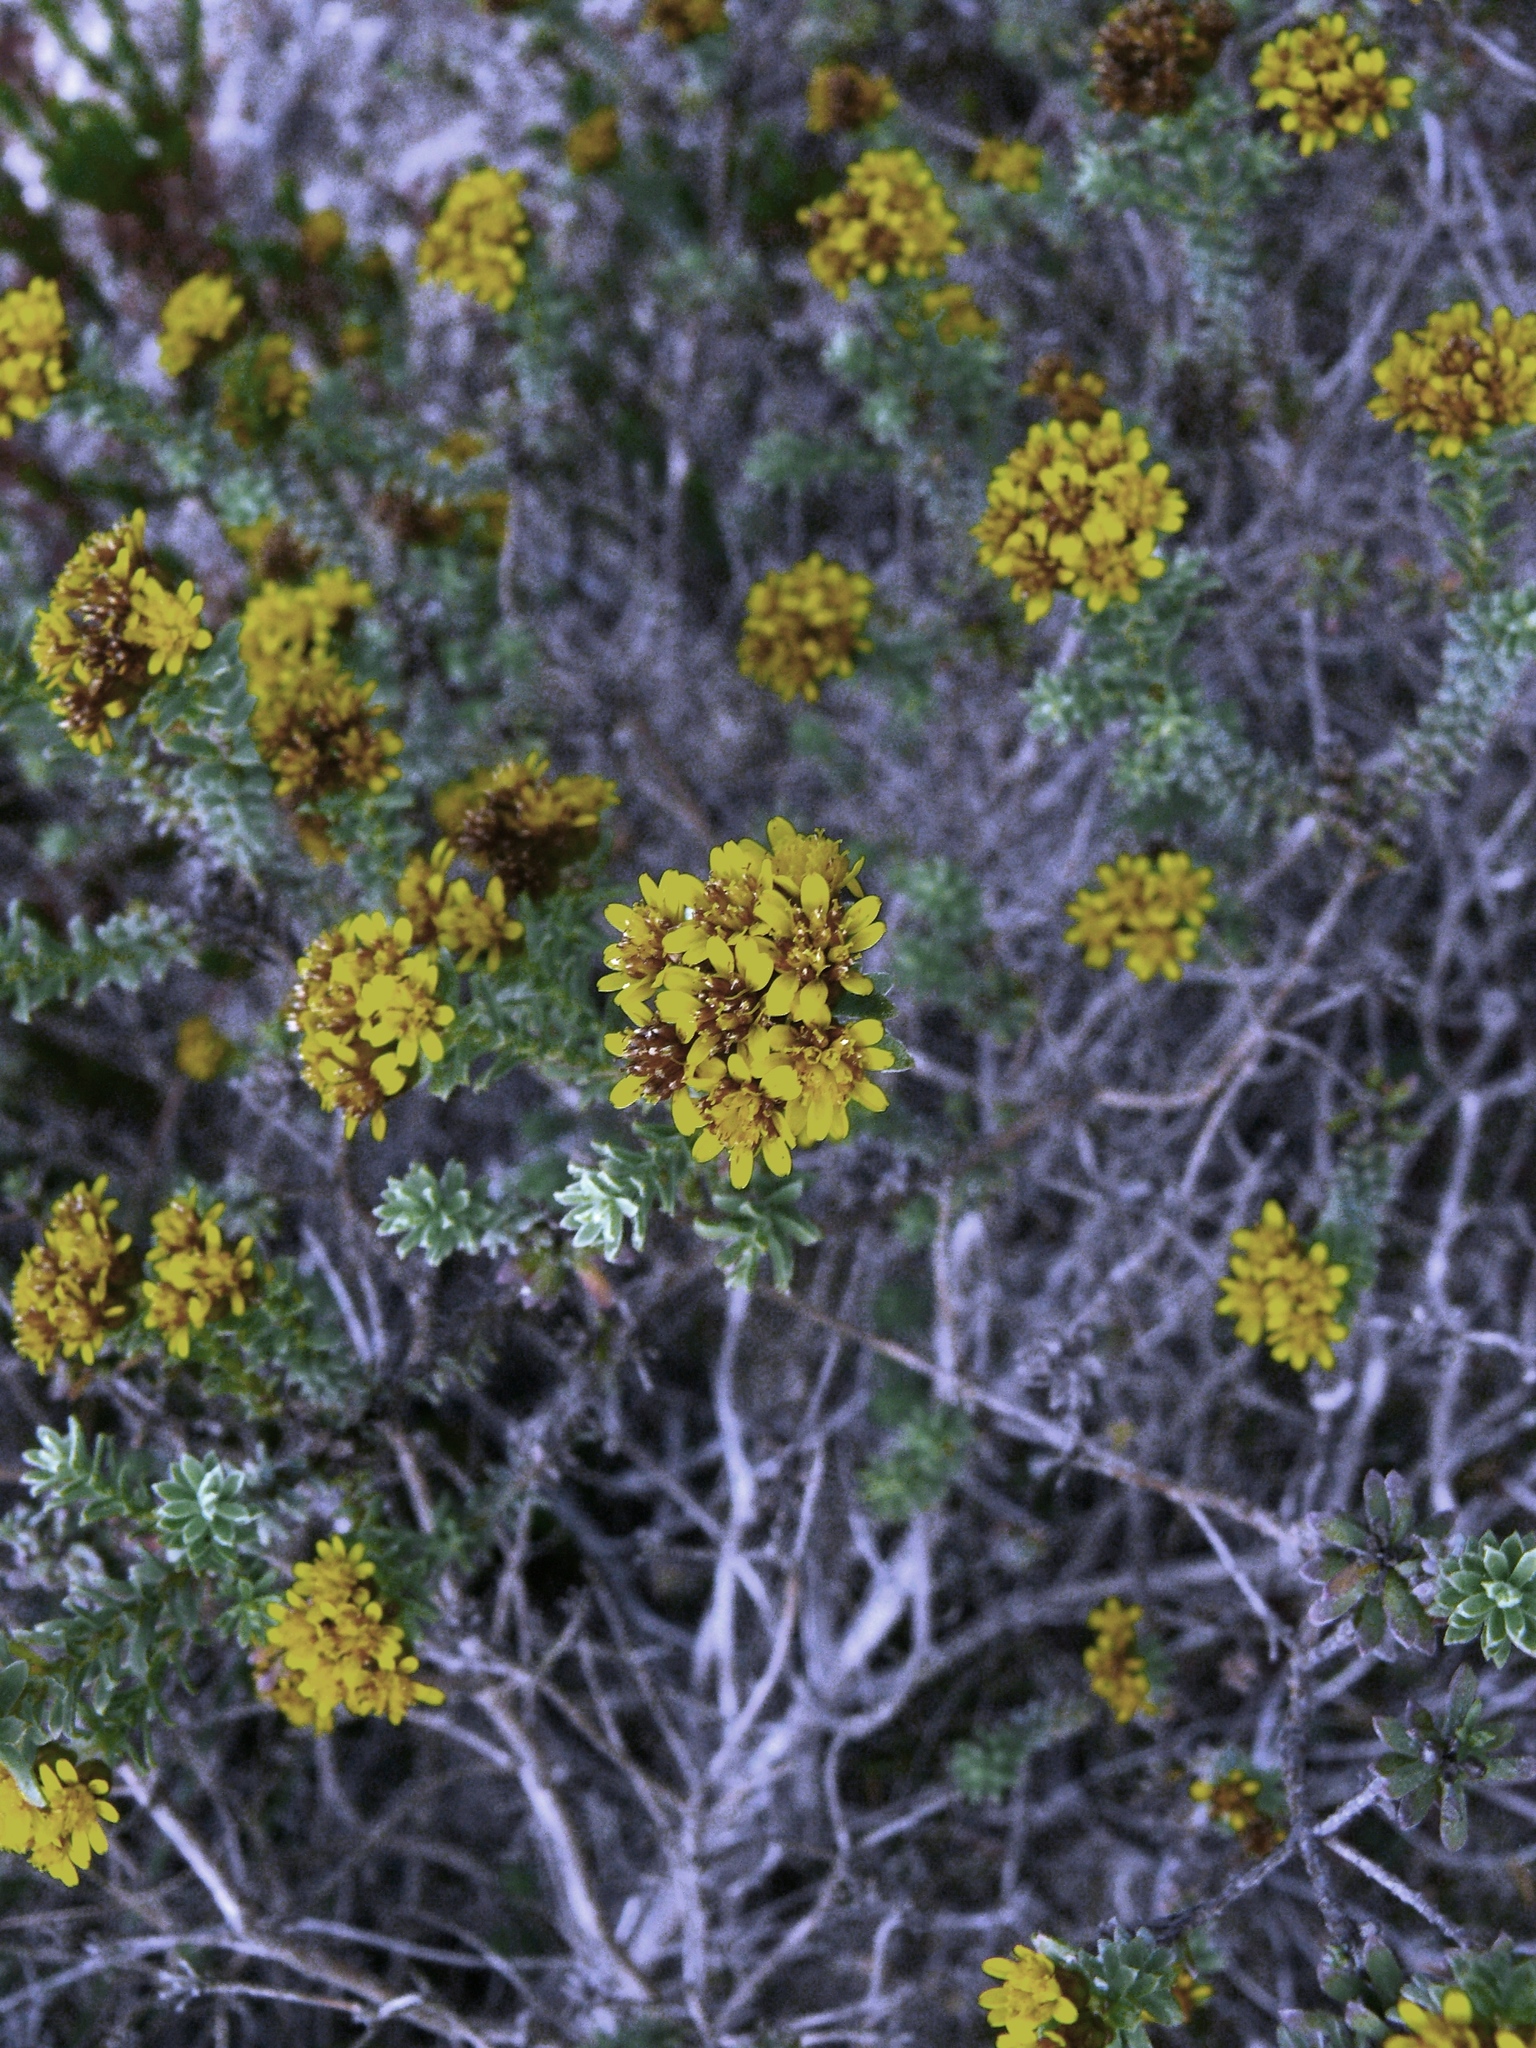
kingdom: Plantae
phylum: Tracheophyta
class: Magnoliopsida
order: Asterales
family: Asteraceae
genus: Oedera
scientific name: Oedera genistifolia
